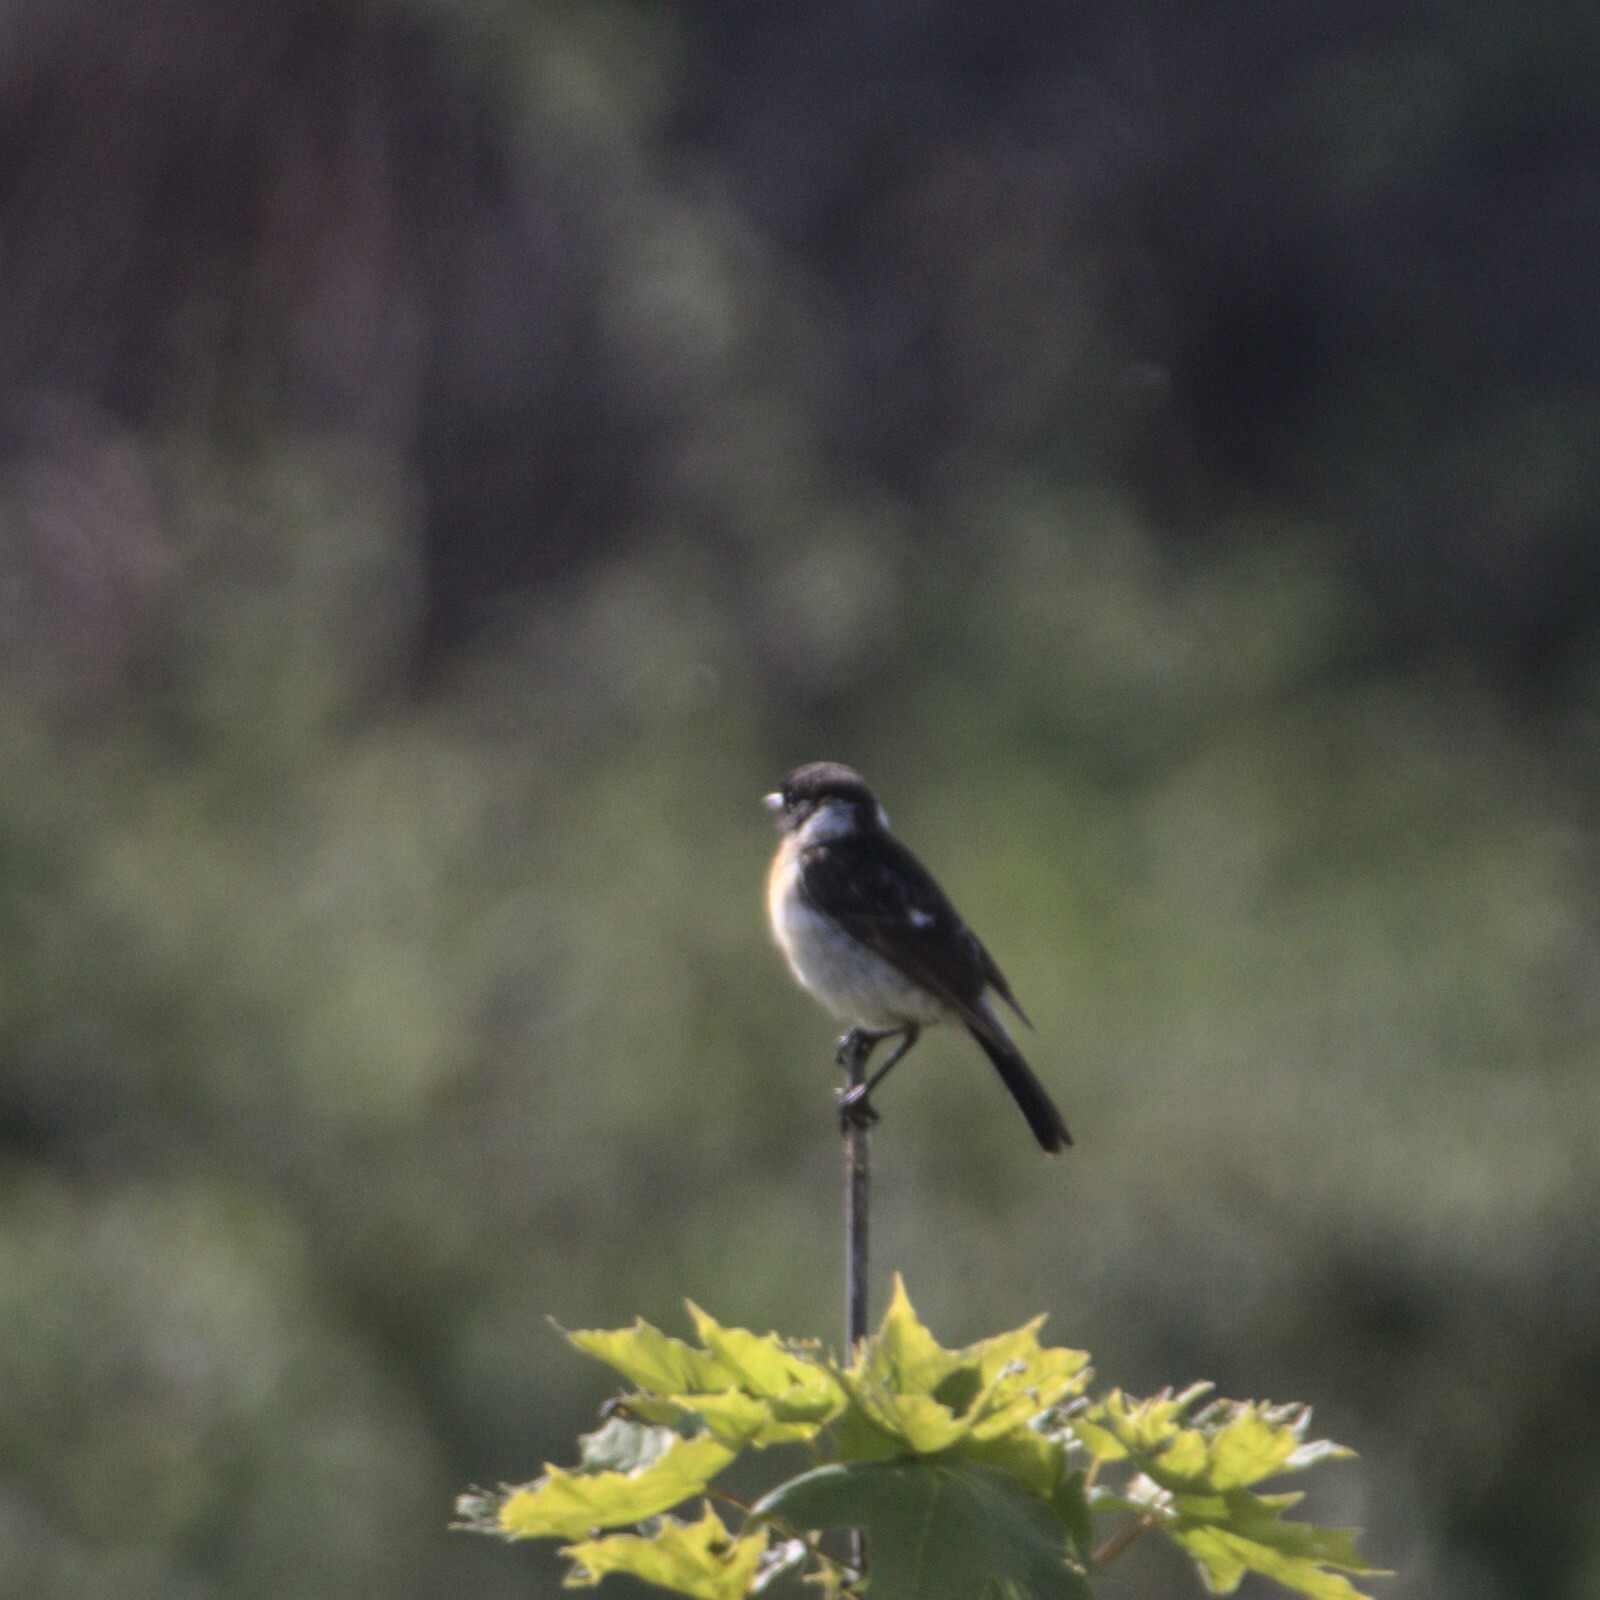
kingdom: Animalia
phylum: Chordata
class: Aves
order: Passeriformes
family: Muscicapidae
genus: Saxicola
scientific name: Saxicola maurus
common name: Siberian stonechat
